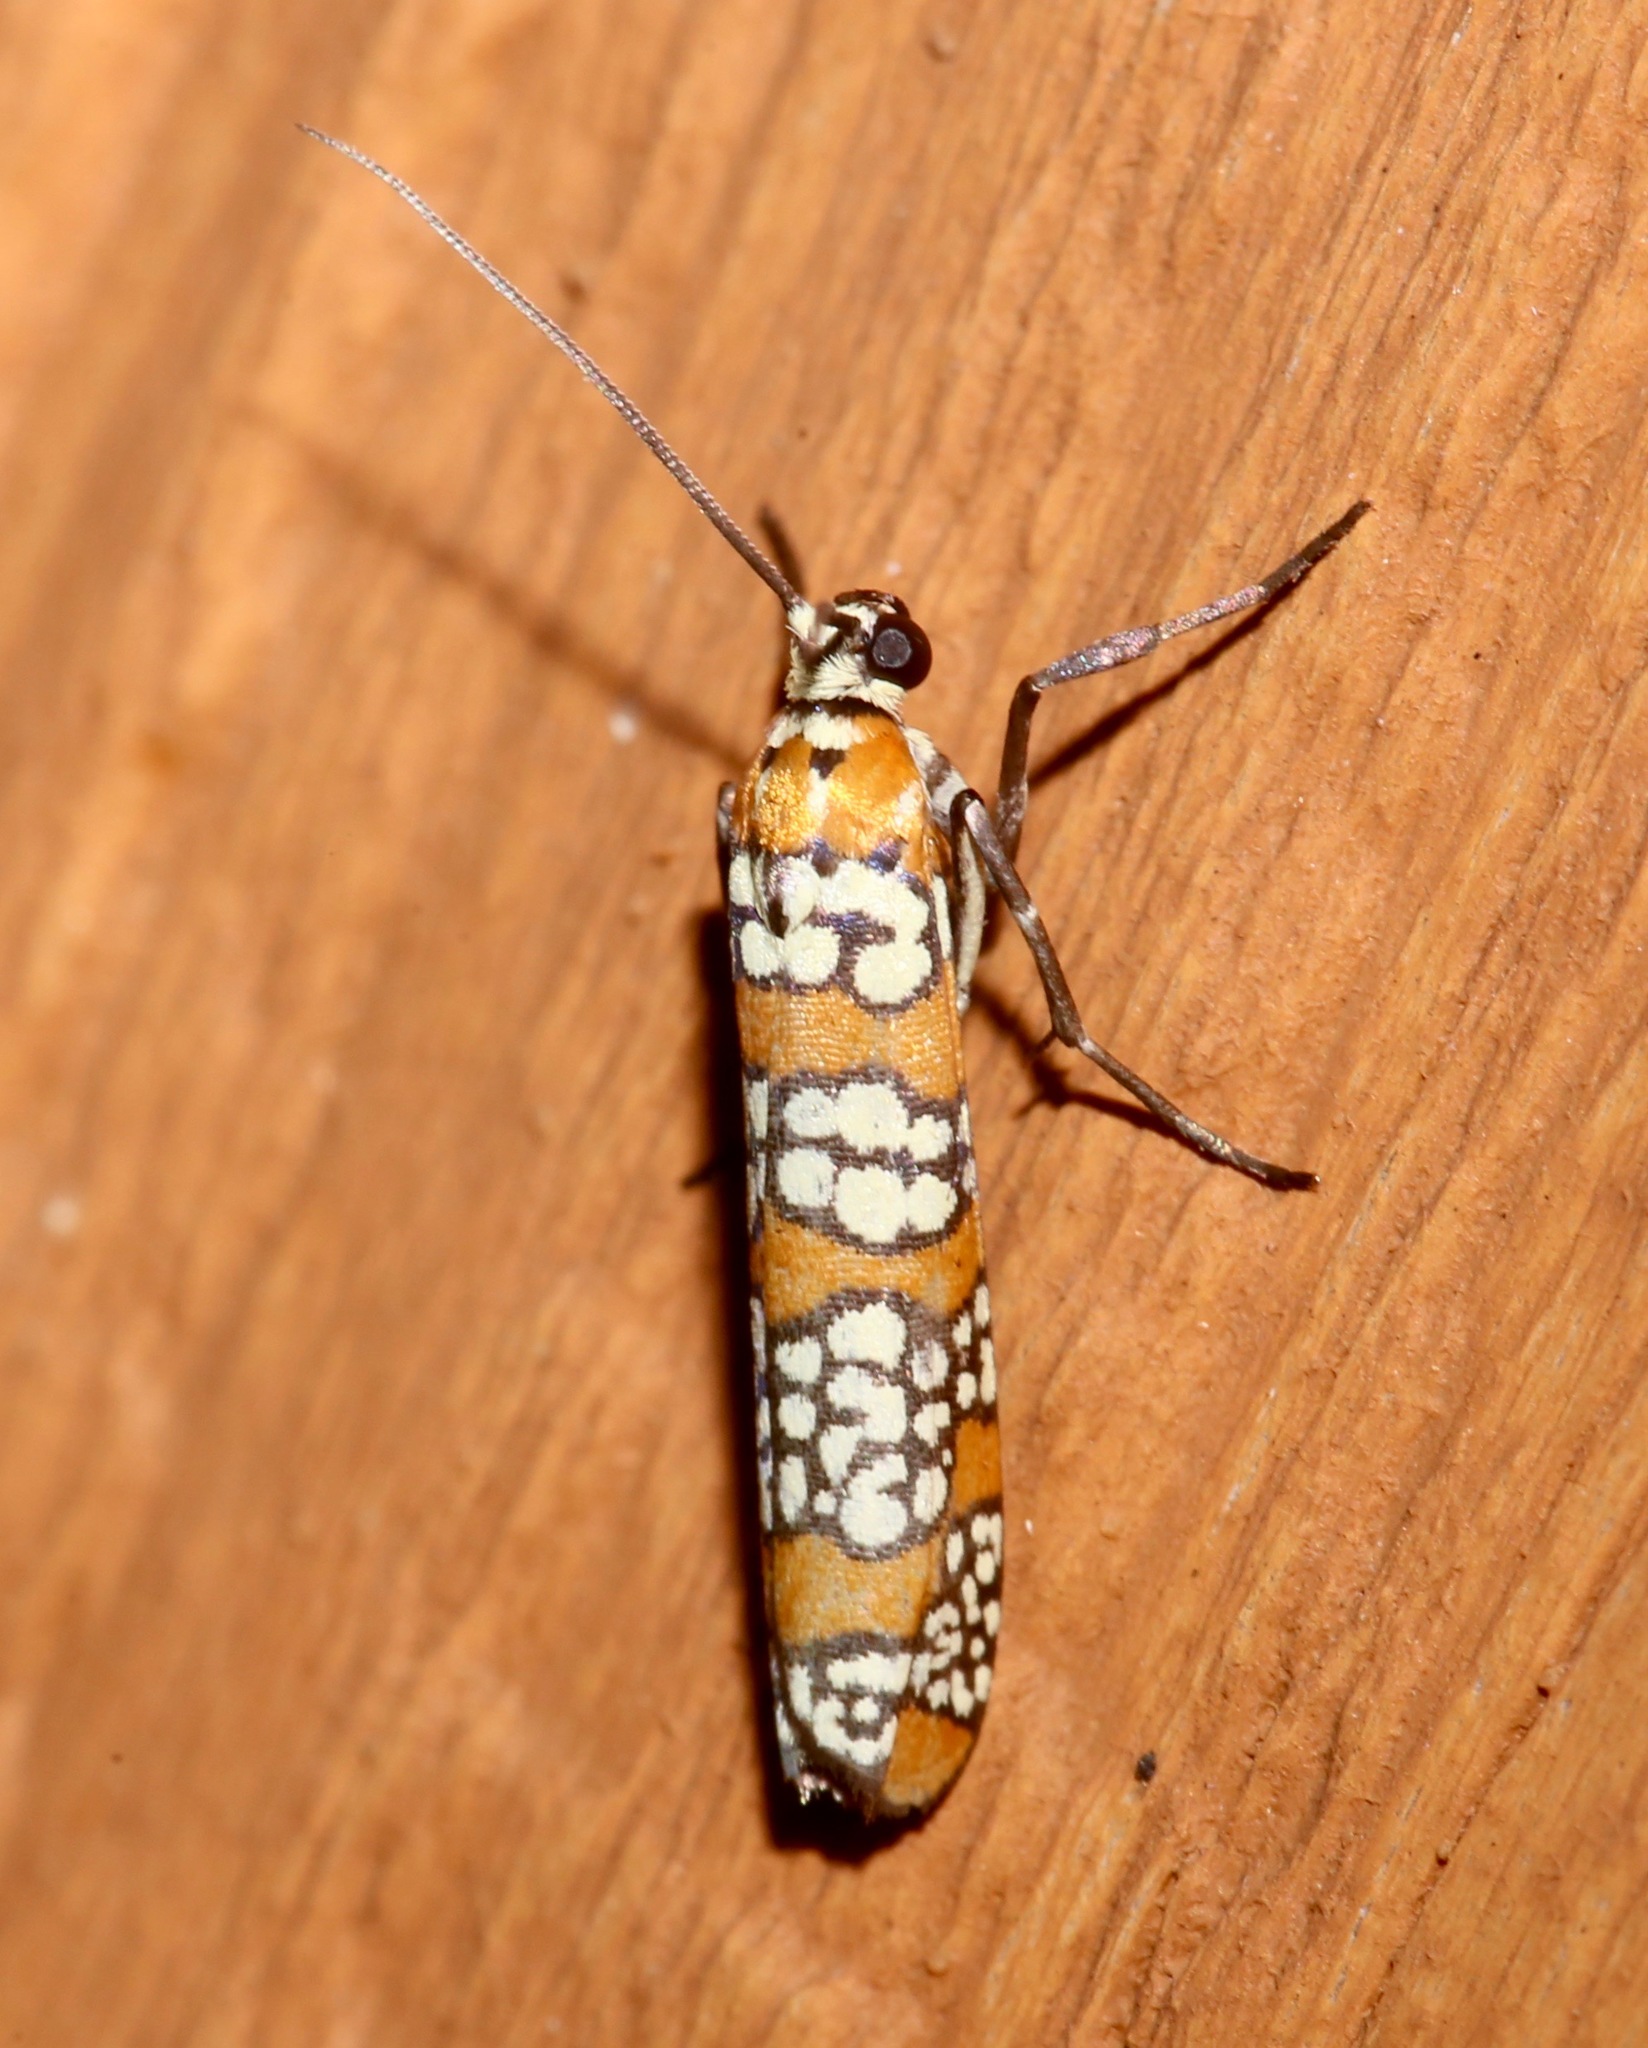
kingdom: Animalia
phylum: Arthropoda
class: Insecta
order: Lepidoptera
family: Attevidae
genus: Atteva
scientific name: Atteva punctella
